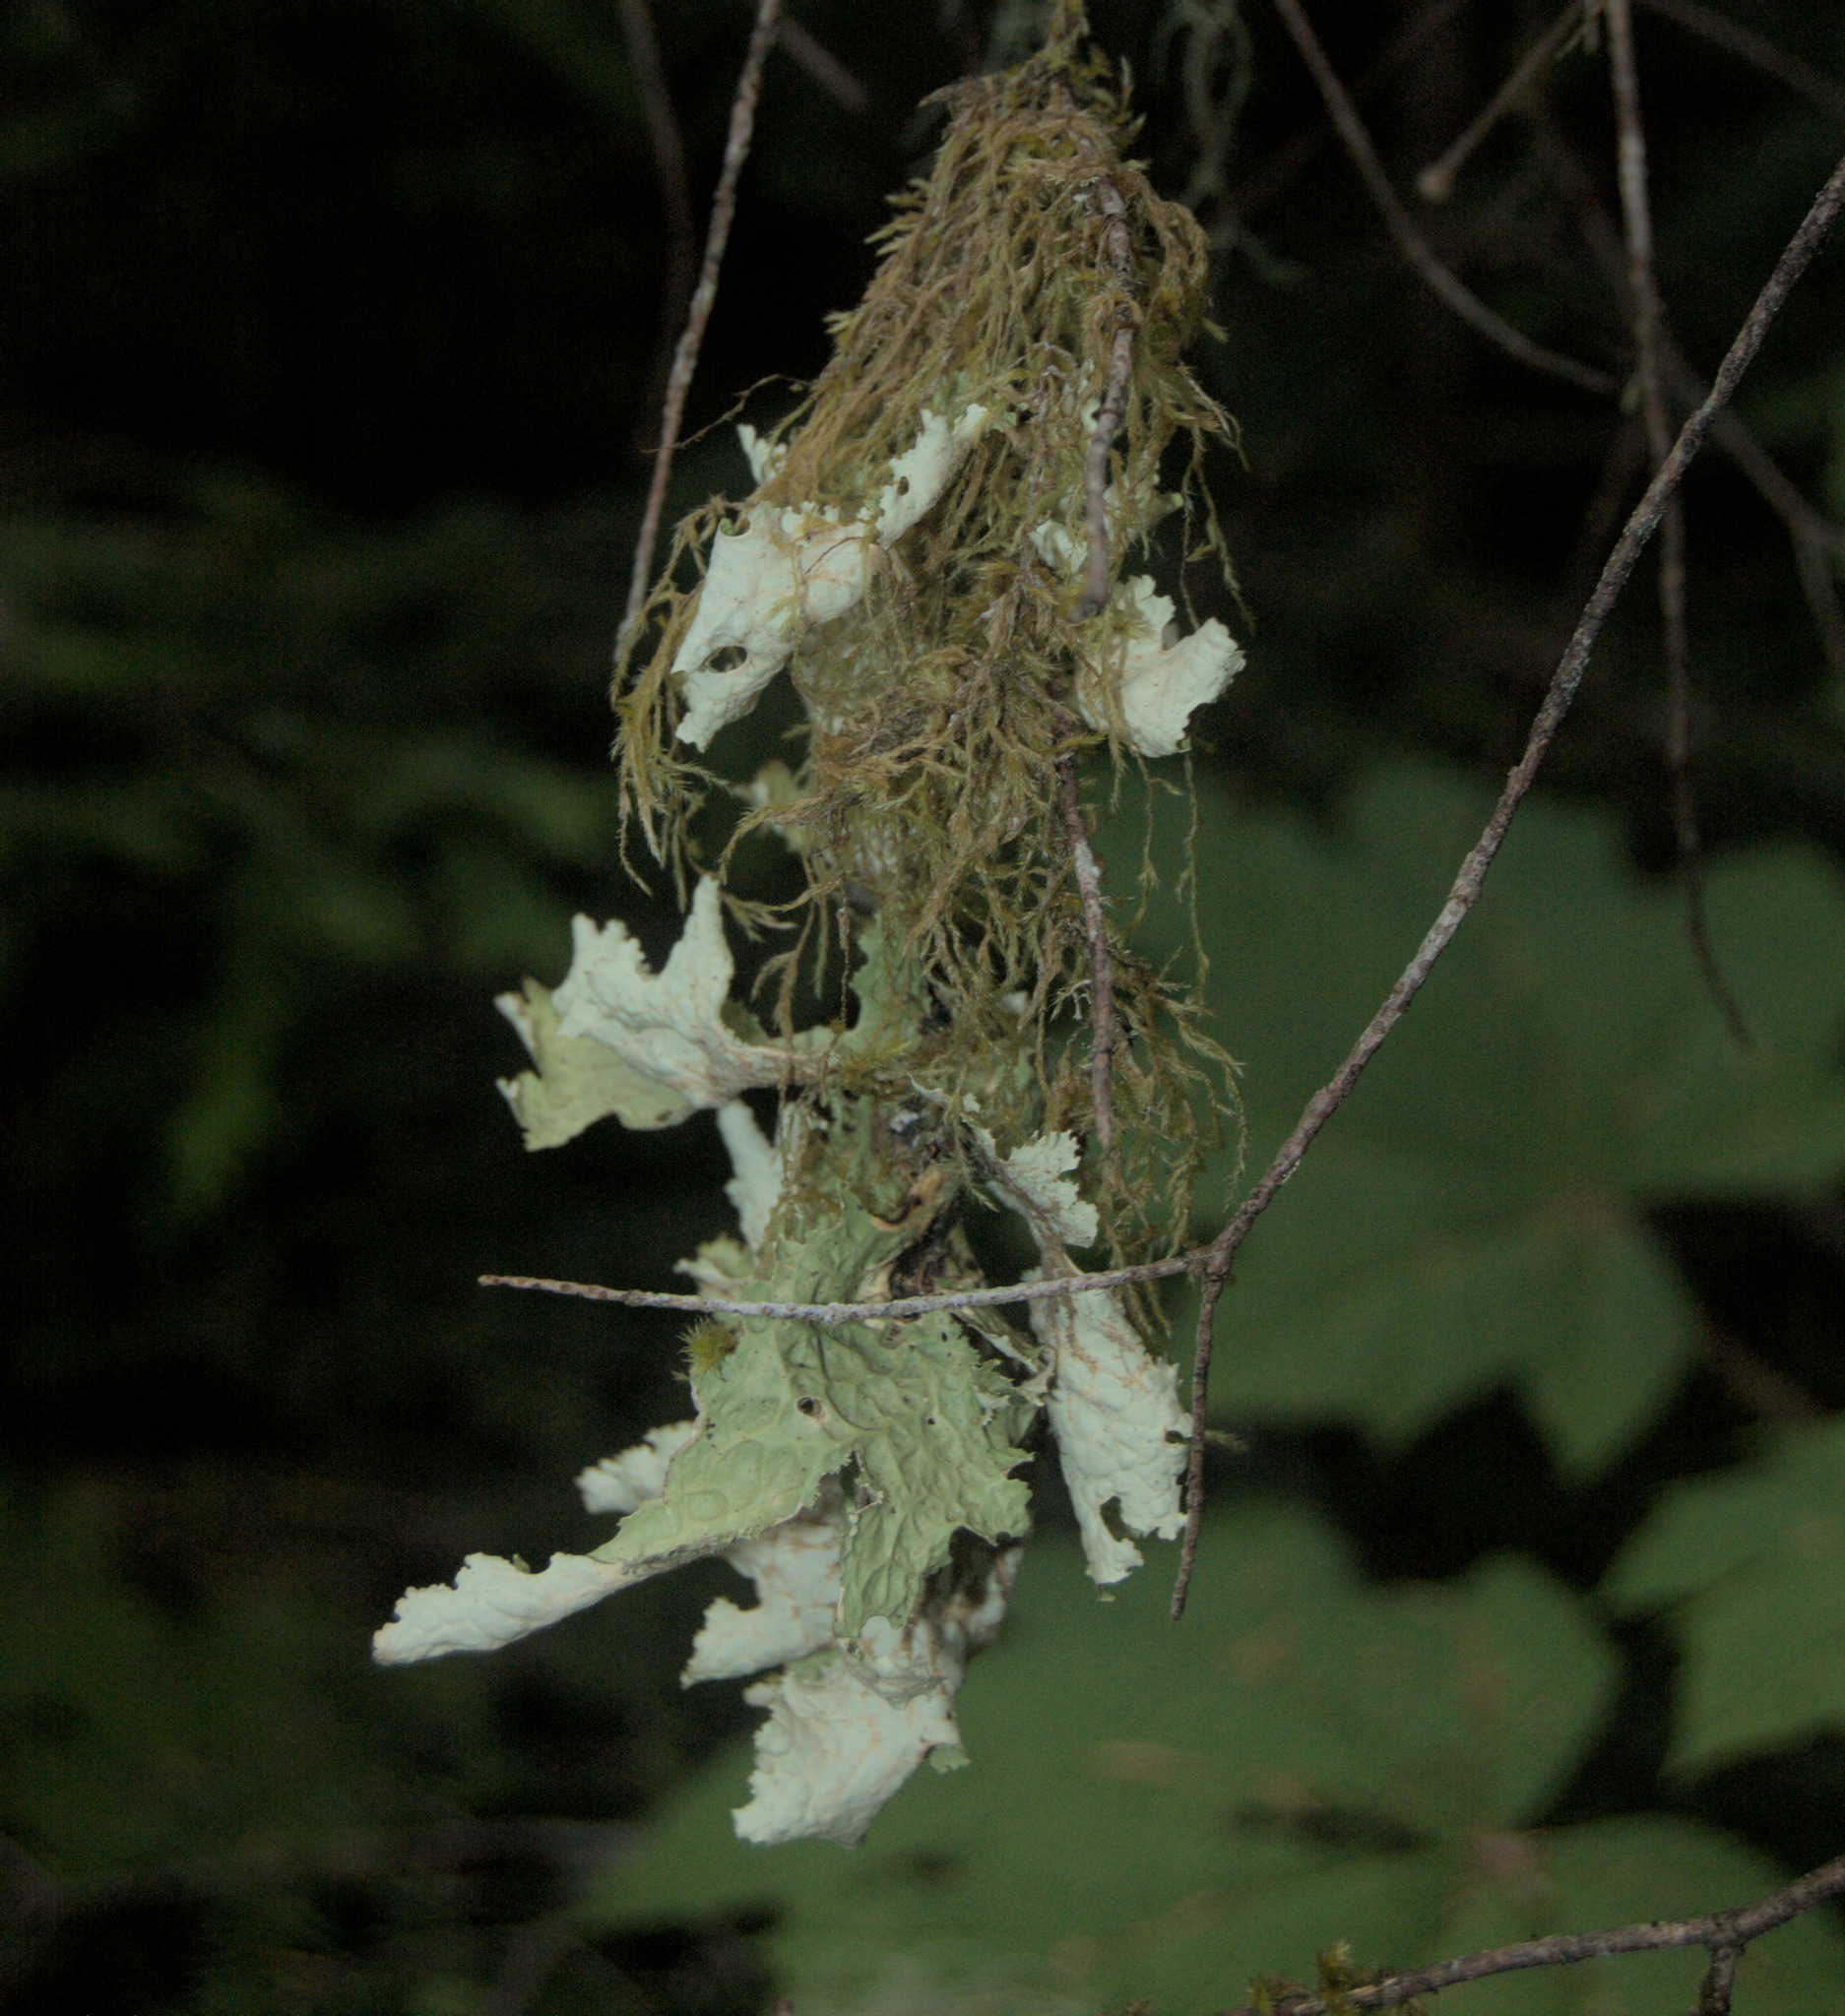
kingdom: Fungi
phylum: Ascomycota
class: Lecanoromycetes
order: Peltigerales
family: Lobariaceae
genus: Lobaria
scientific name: Lobaria oregana
